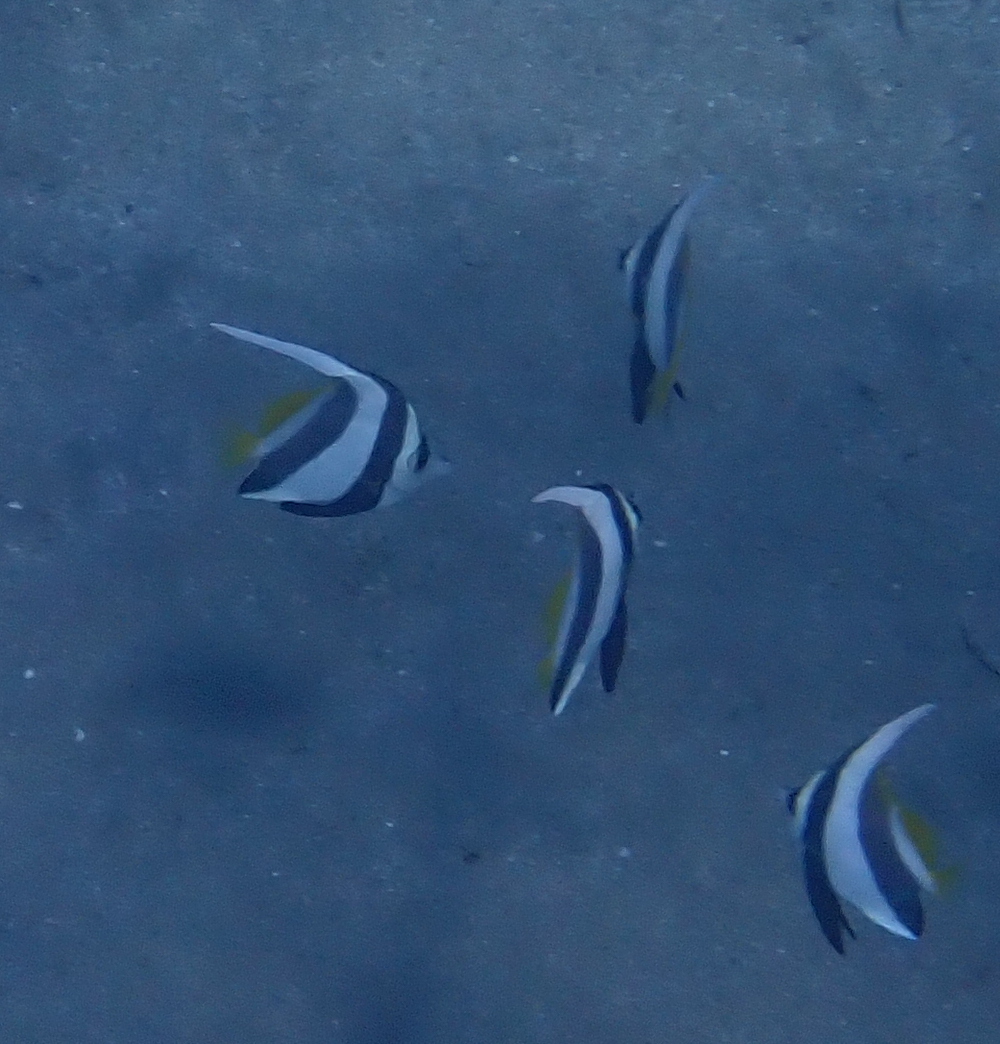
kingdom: Animalia
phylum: Chordata
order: Perciformes
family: Chaetodontidae
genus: Heniochus
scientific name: Heniochus diphreutes
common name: Pennantfish
